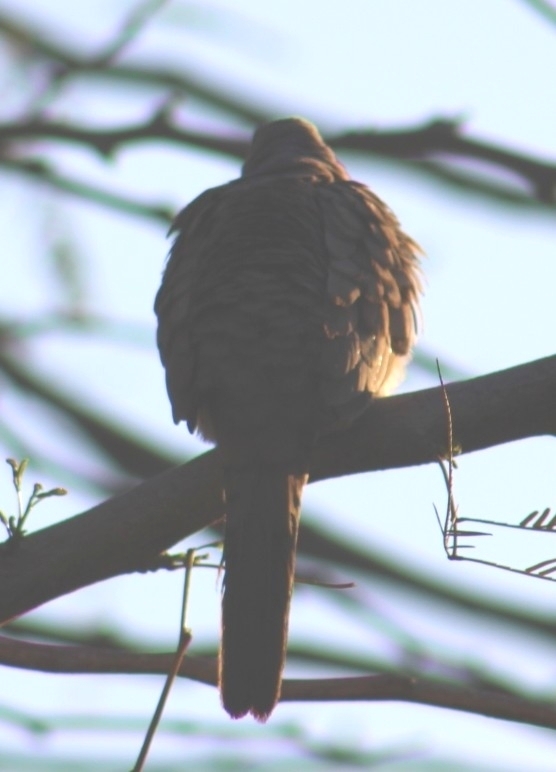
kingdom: Animalia
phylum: Chordata
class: Aves
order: Columbiformes
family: Columbidae
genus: Columbina
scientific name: Columbina inca
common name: Inca dove
